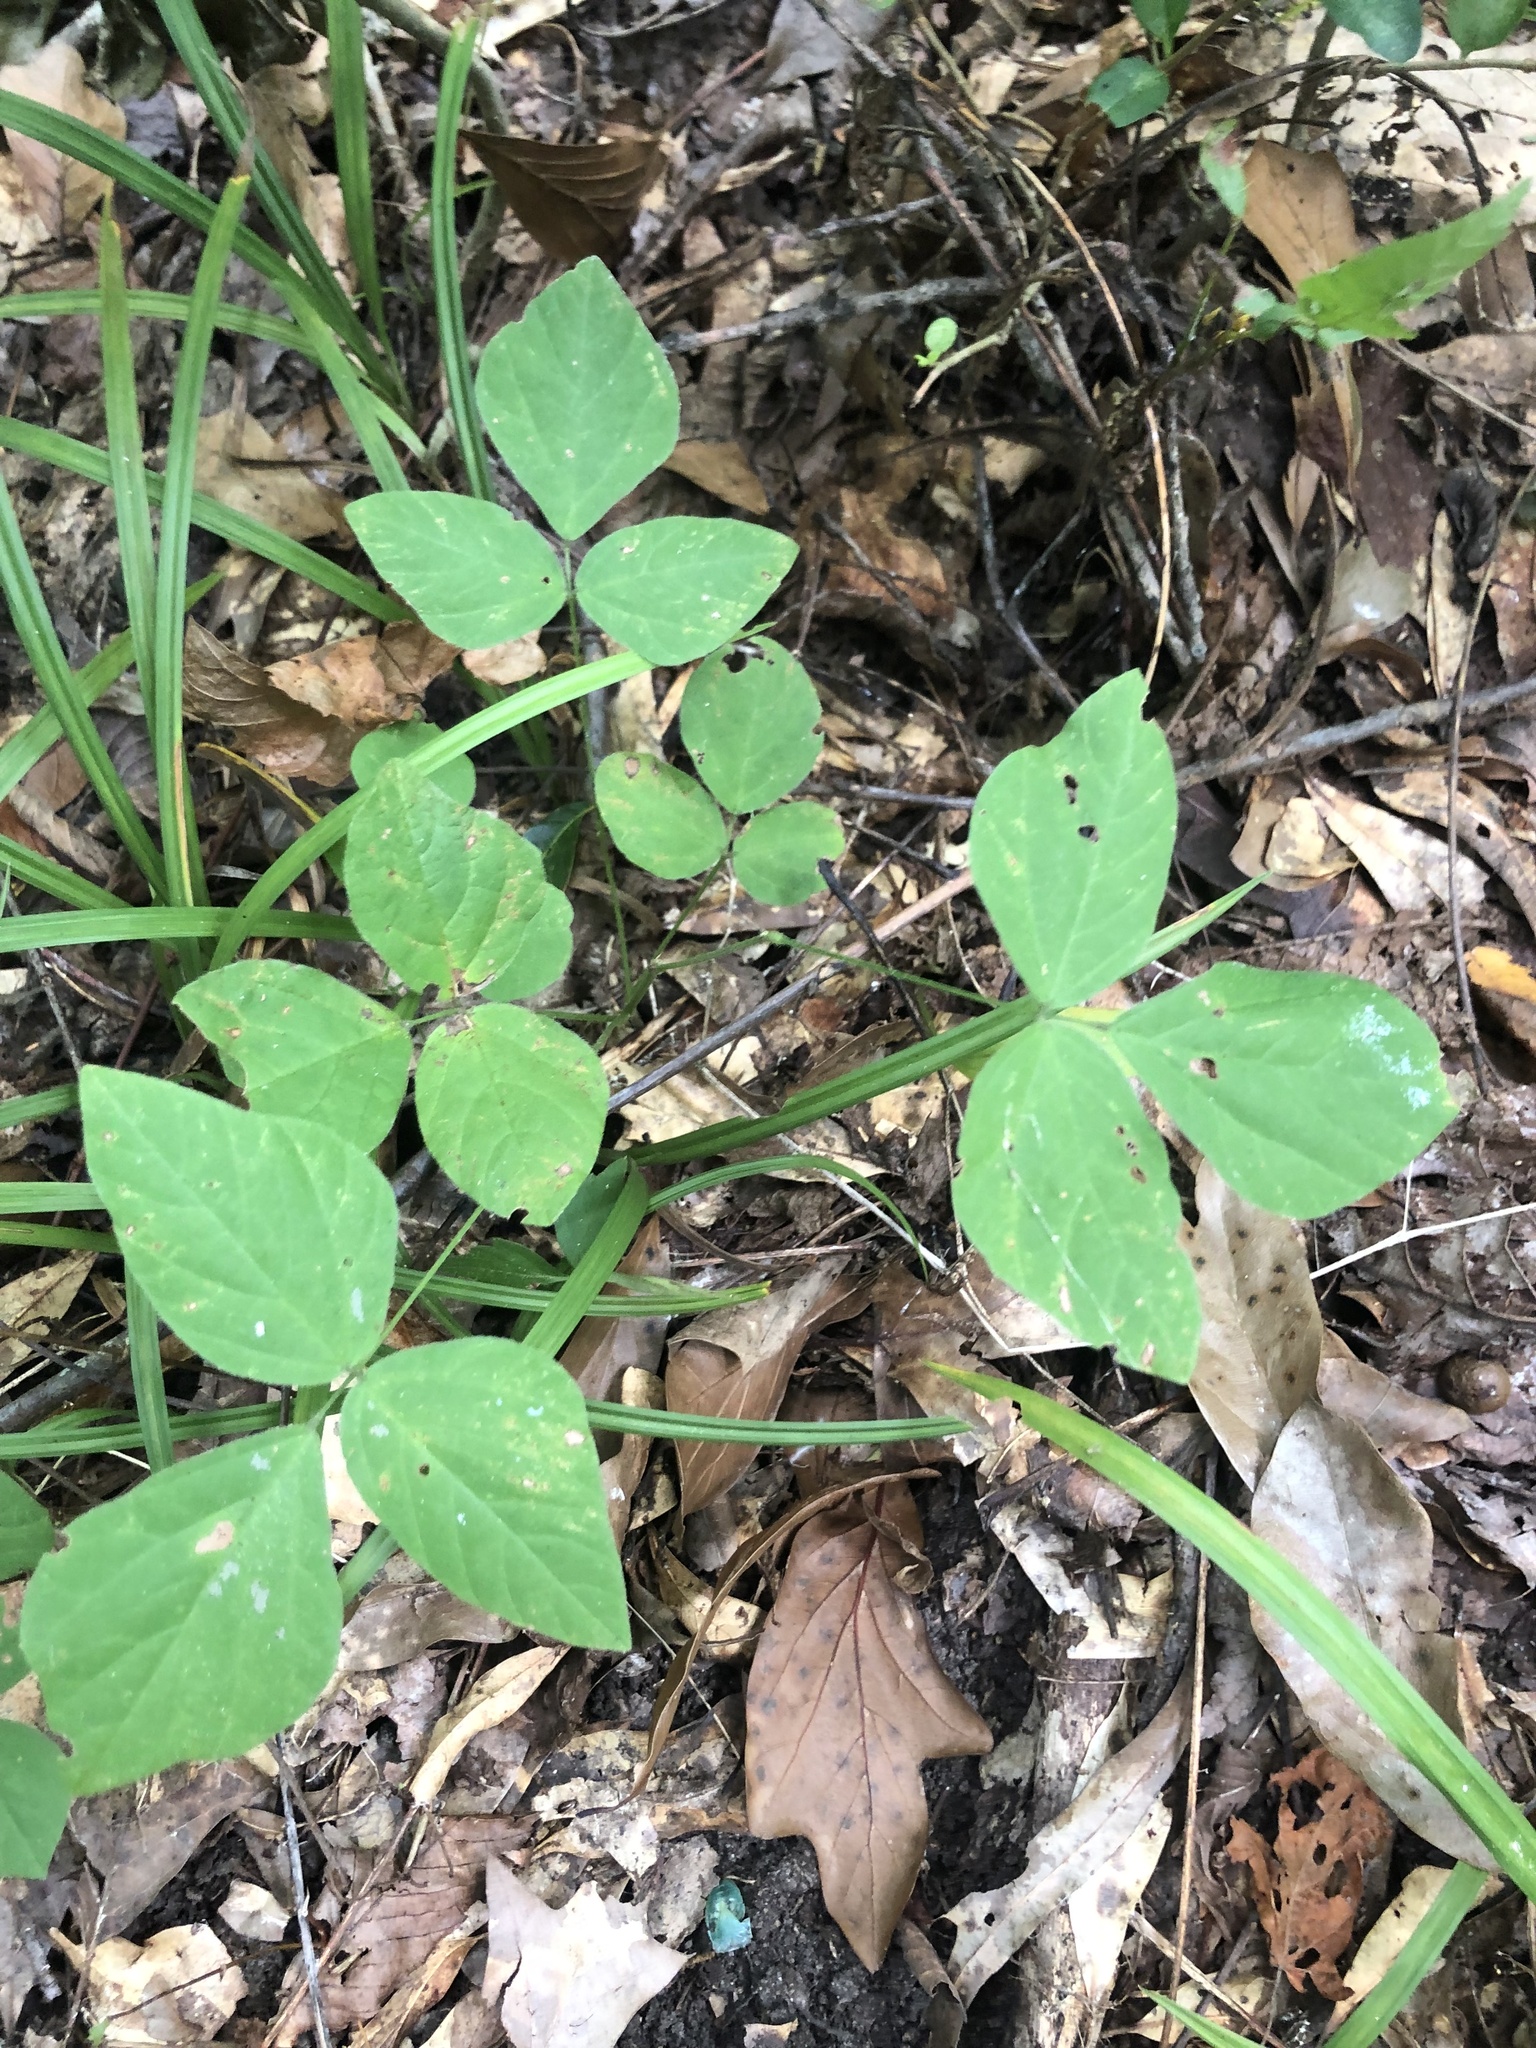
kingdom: Plantae
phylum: Tracheophyta
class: Magnoliopsida
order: Fabales
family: Fabaceae
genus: Hylodesmum
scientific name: Hylodesmum pauciflorum
